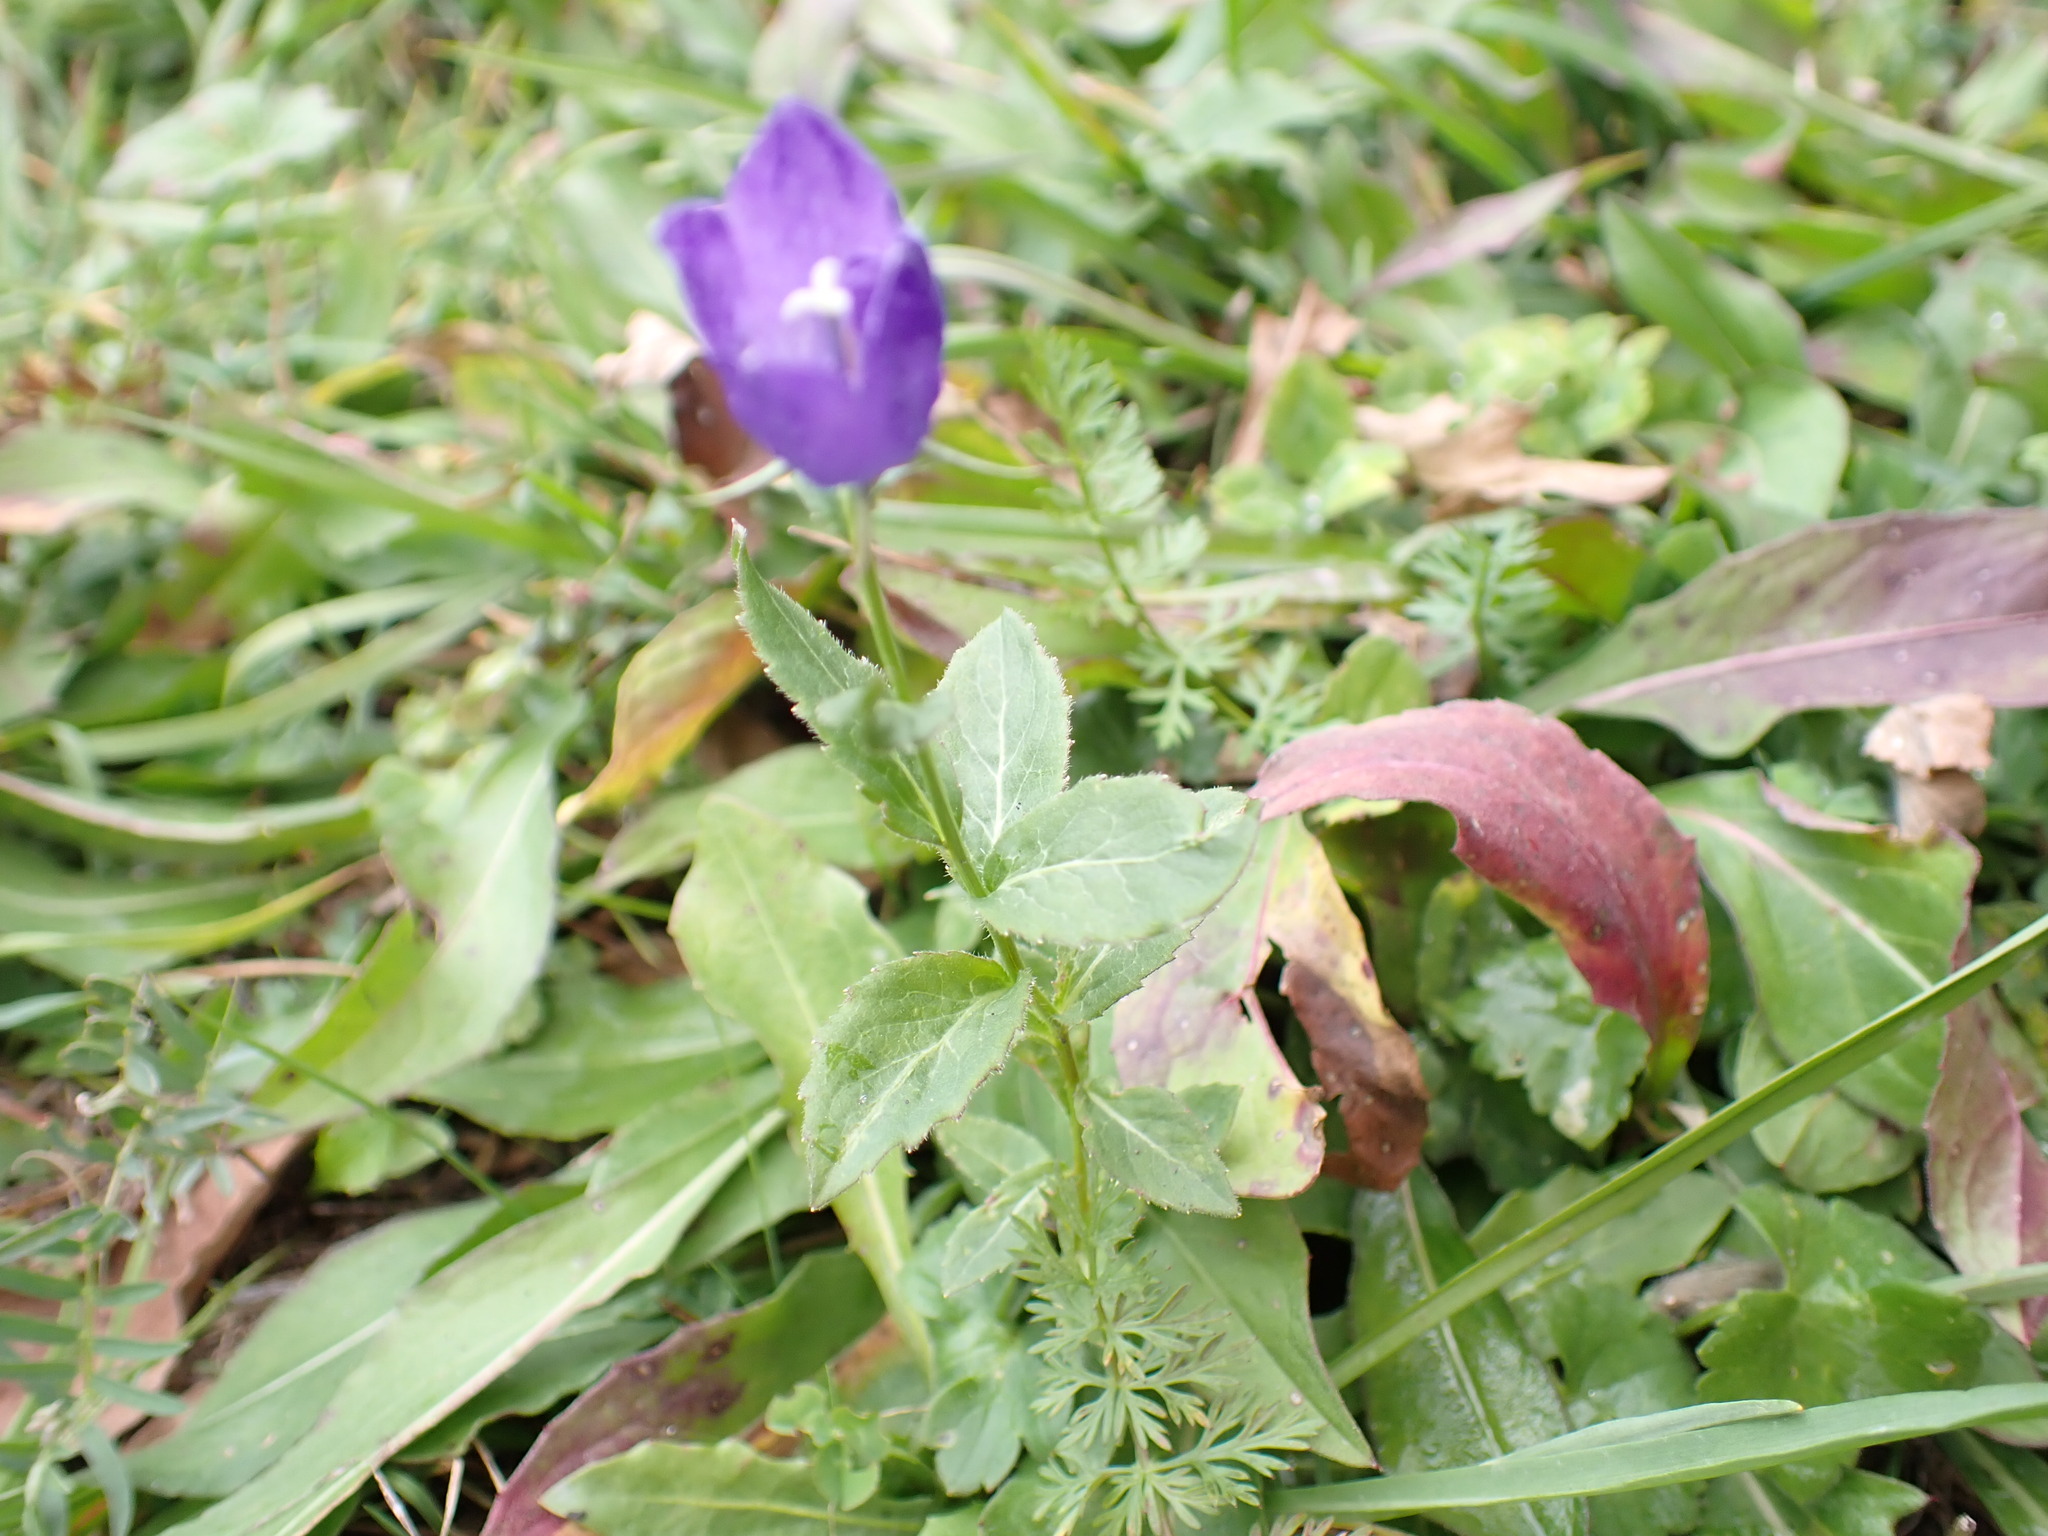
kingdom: Plantae
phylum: Tracheophyta
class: Magnoliopsida
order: Asterales
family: Campanulaceae
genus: Campanula
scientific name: Campanula rhomboidalis
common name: Broad-leaved harebell
